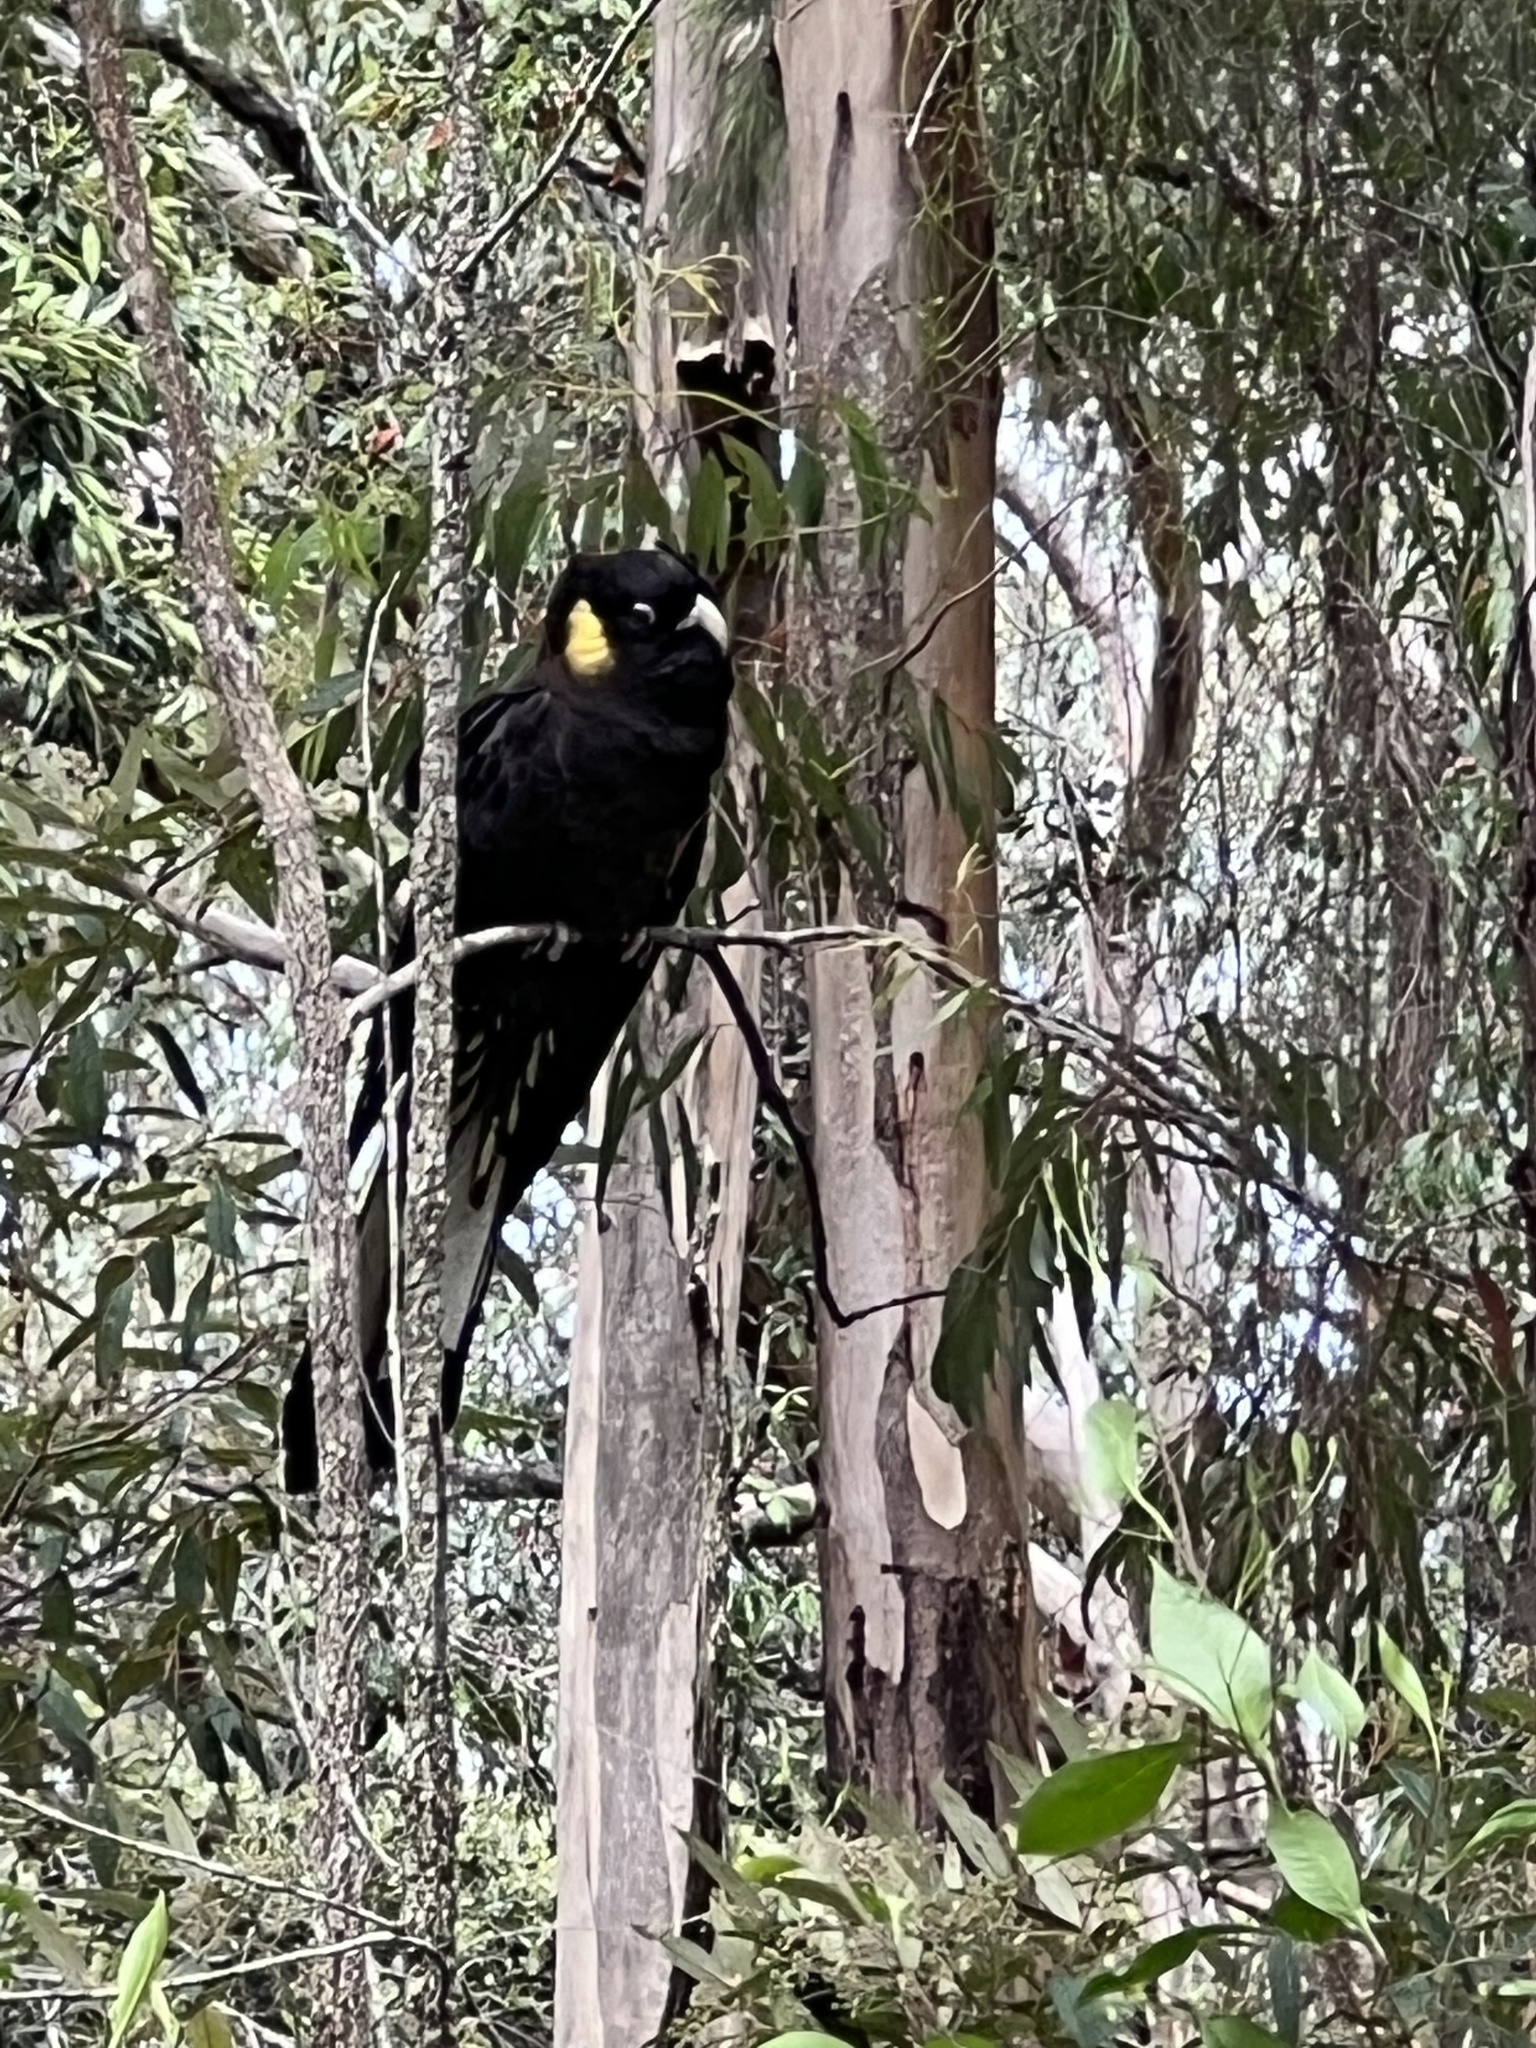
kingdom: Animalia
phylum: Chordata
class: Aves
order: Psittaciformes
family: Cacatuidae
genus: Zanda
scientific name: Zanda funerea
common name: Yellow-tailed black-cockatoo
